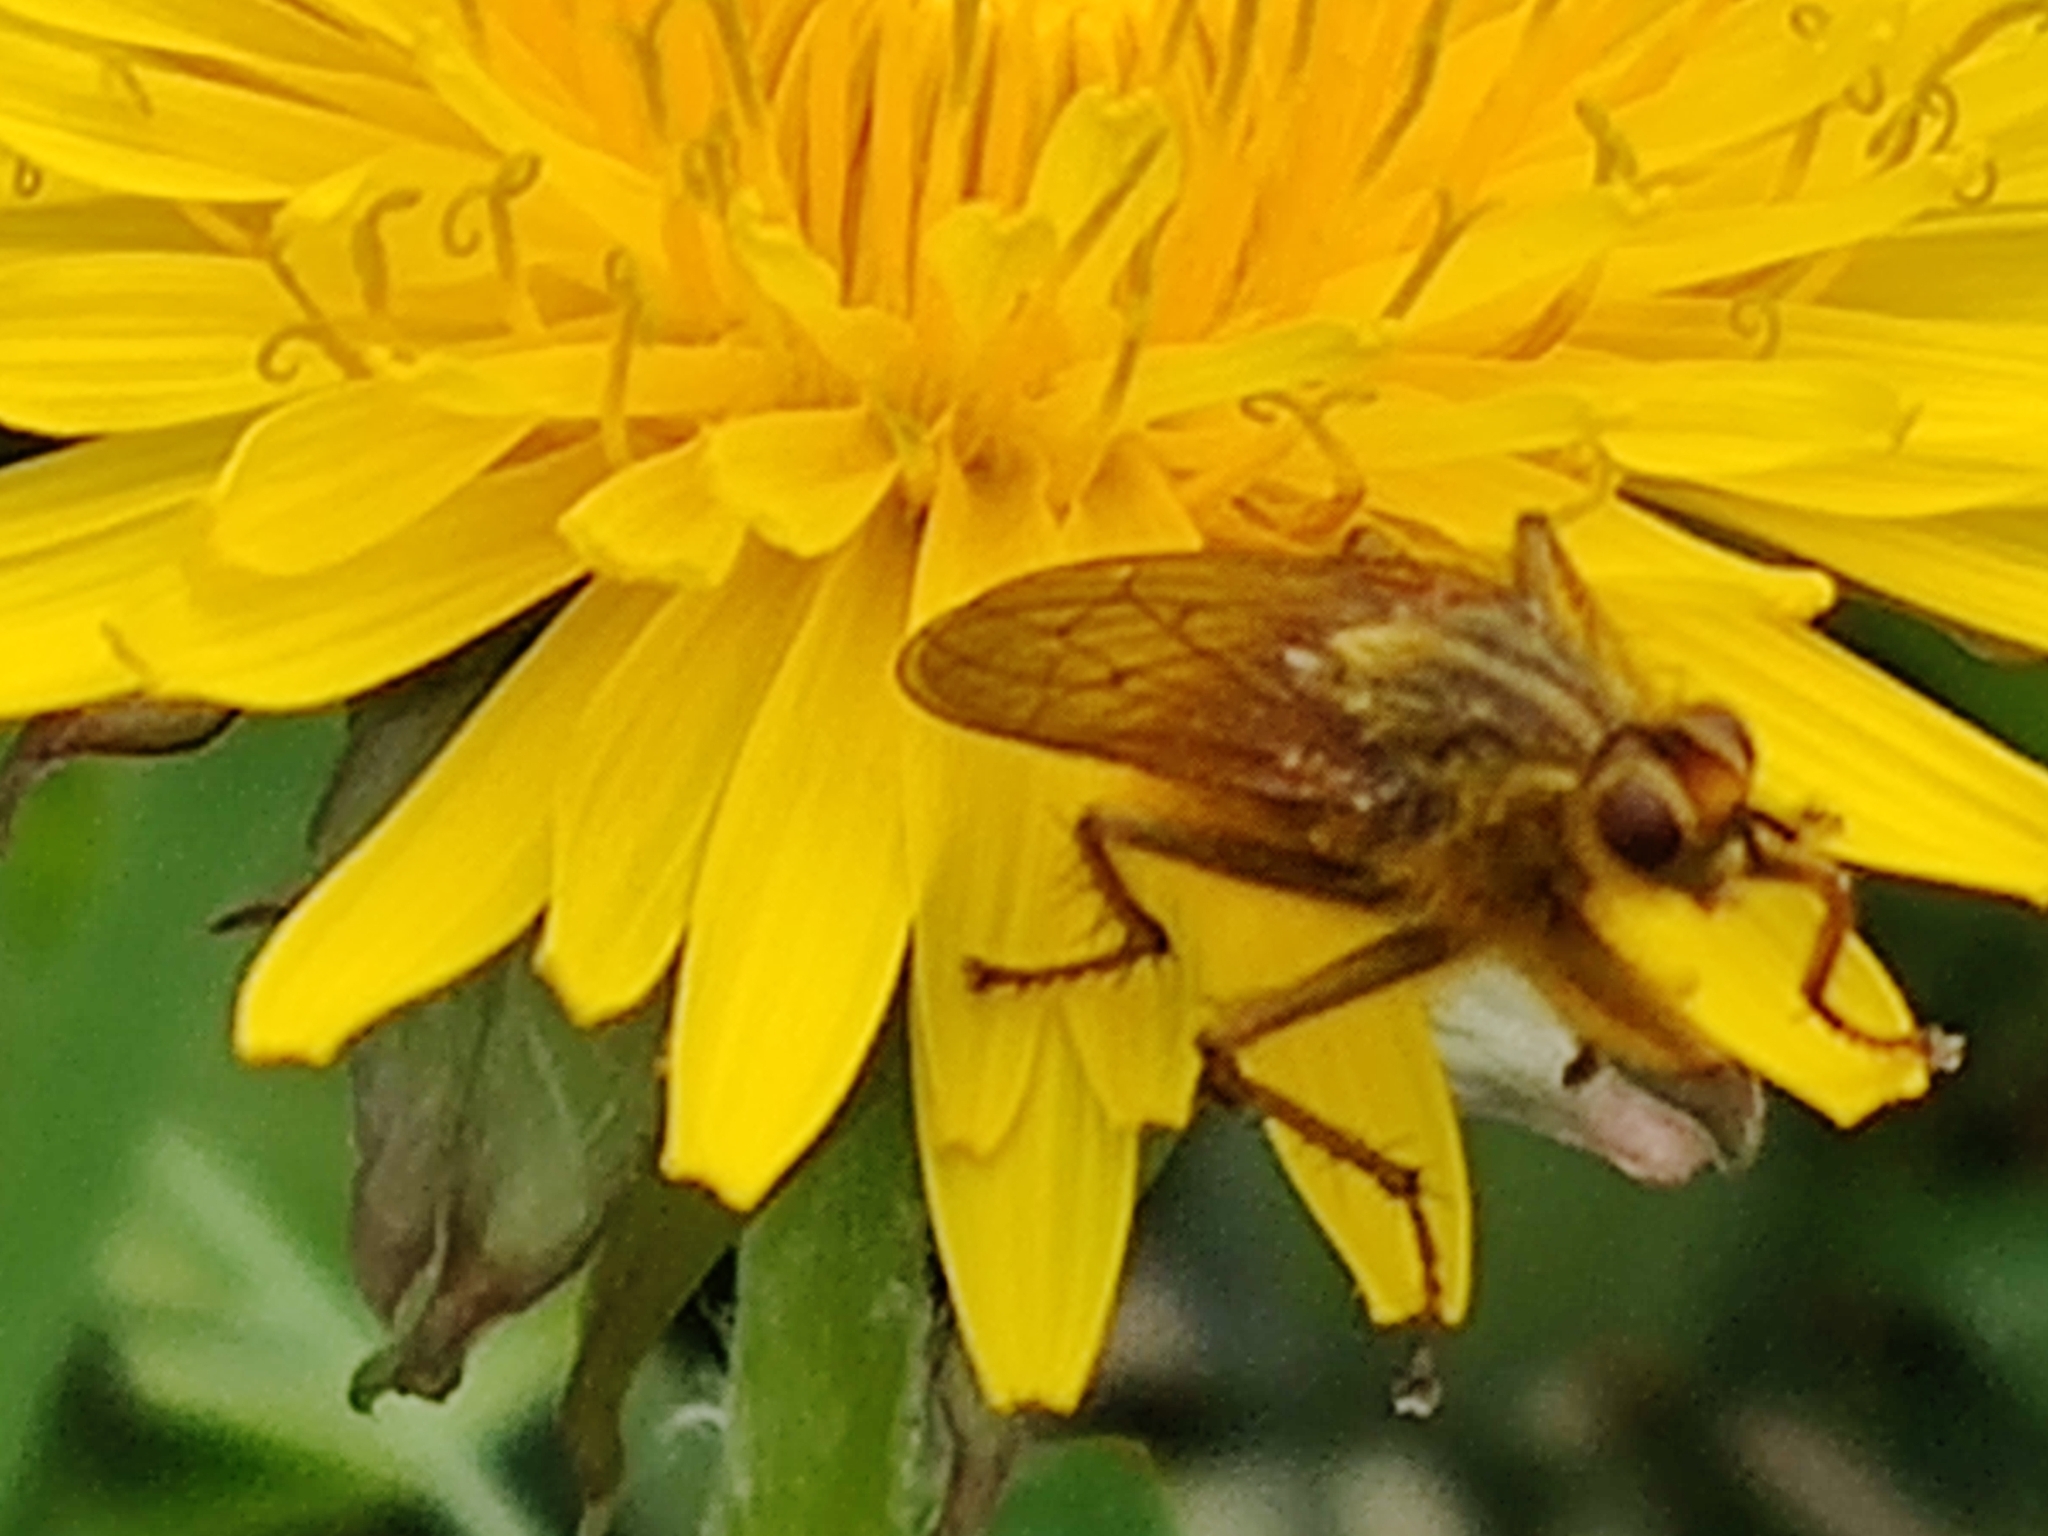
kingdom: Animalia
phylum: Arthropoda
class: Insecta
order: Diptera
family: Scathophagidae
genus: Scathophaga
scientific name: Scathophaga stercoraria
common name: Yellow dung fly
